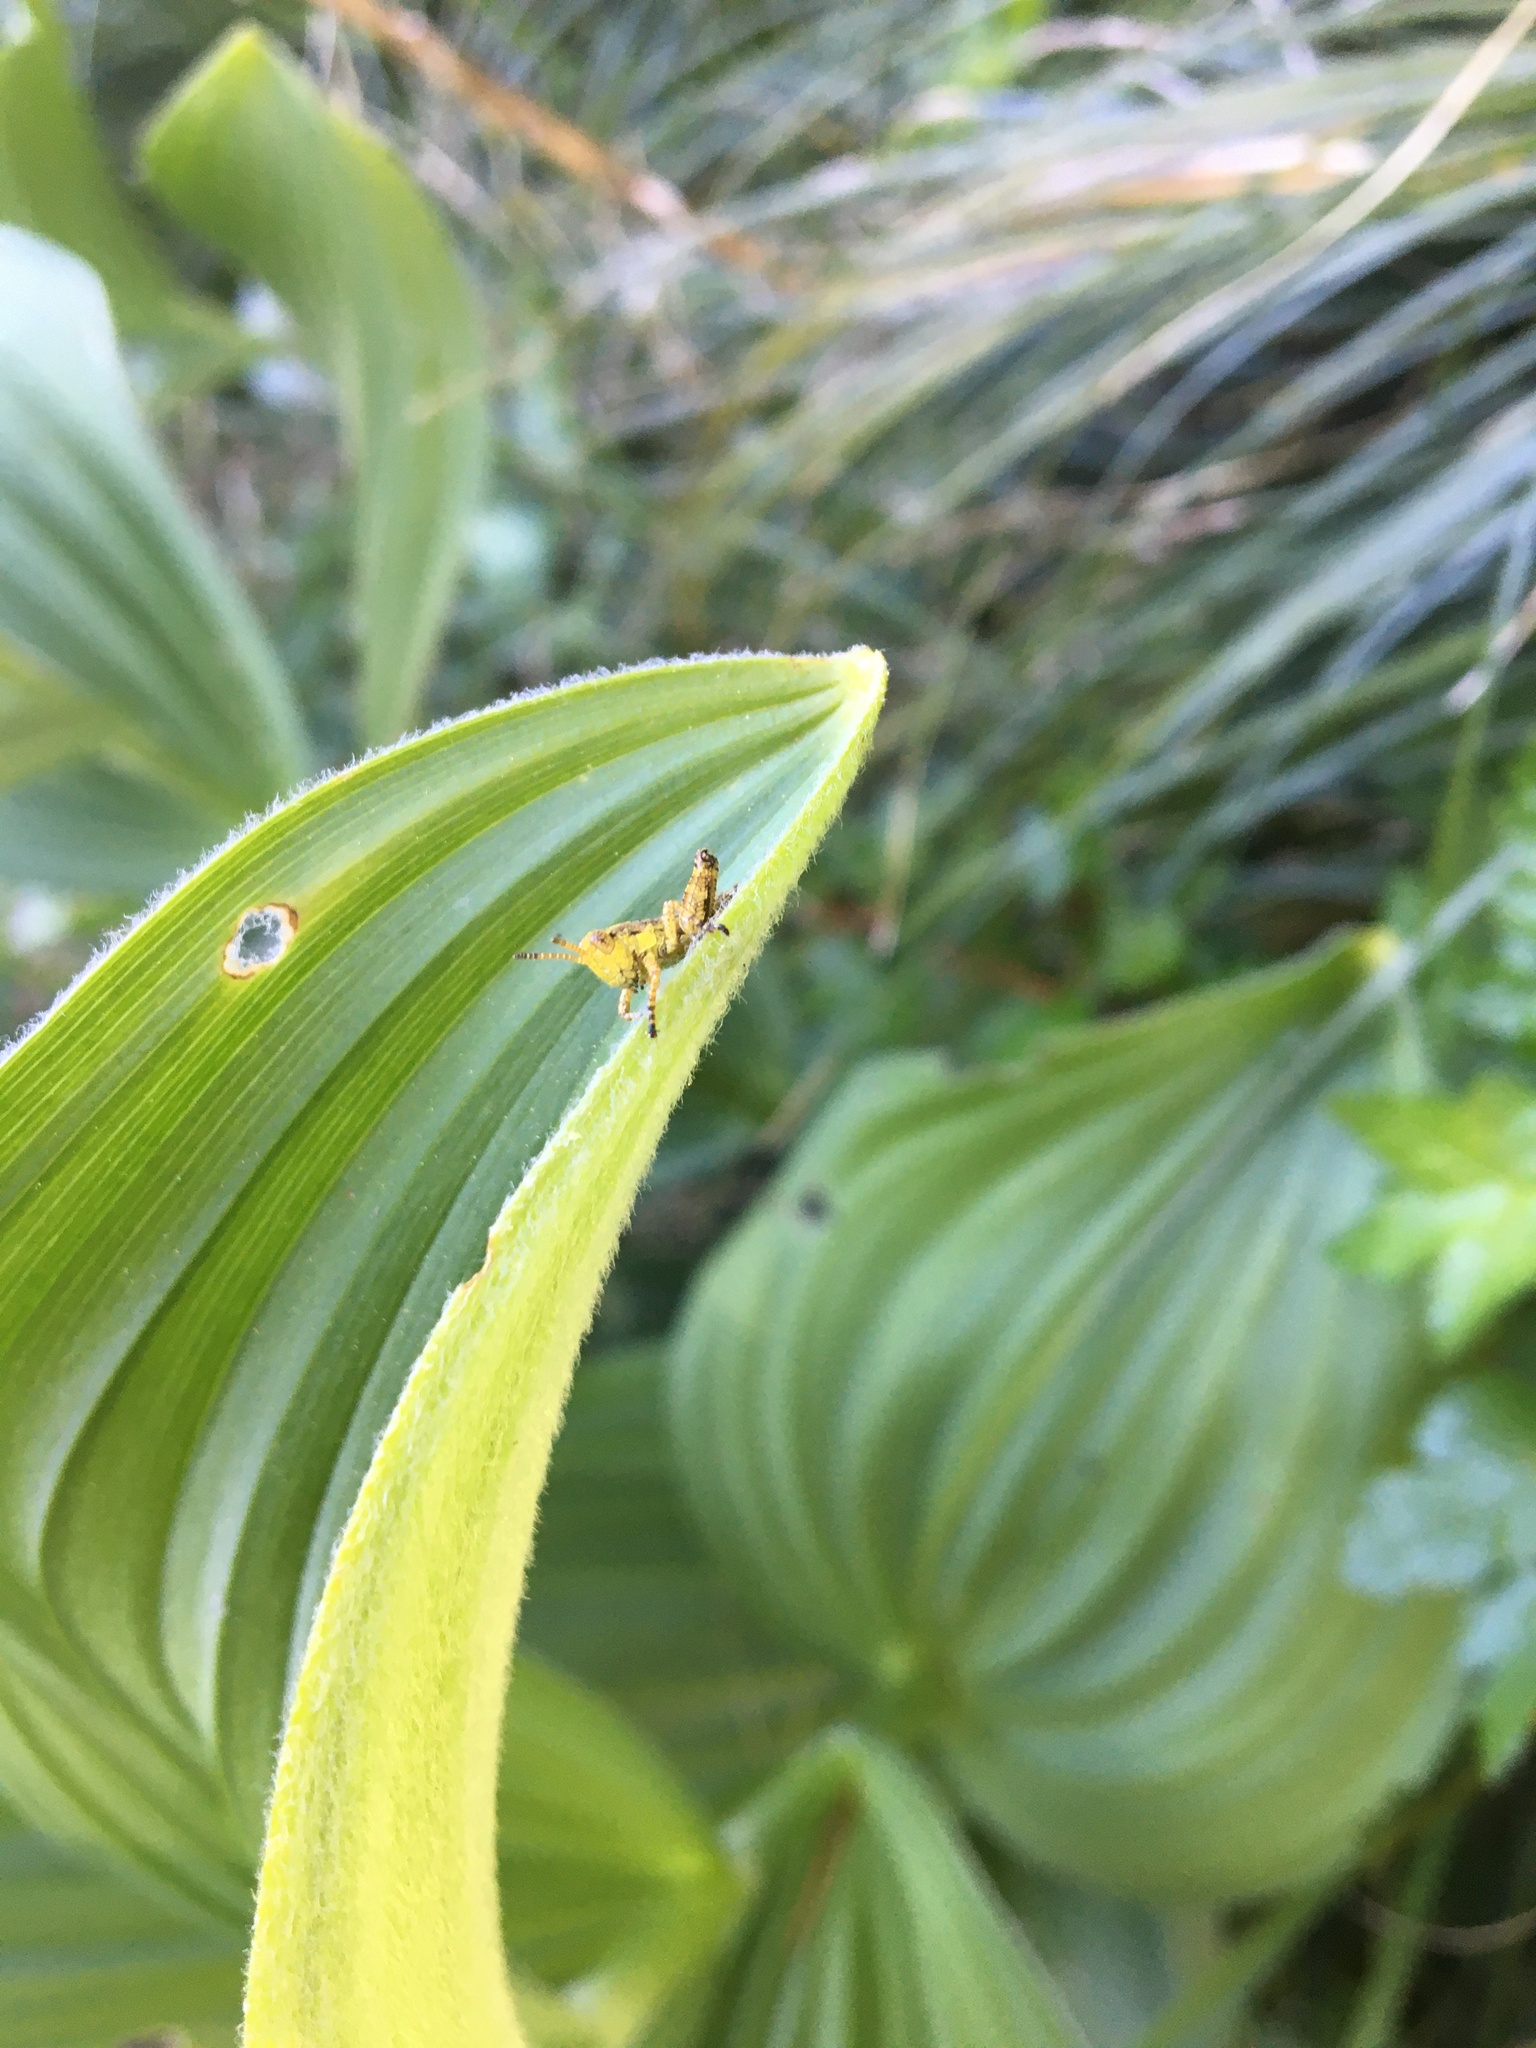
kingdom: Animalia
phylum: Arthropoda
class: Insecta
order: Orthoptera
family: Acrididae
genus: Booneacris
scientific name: Booneacris polita
